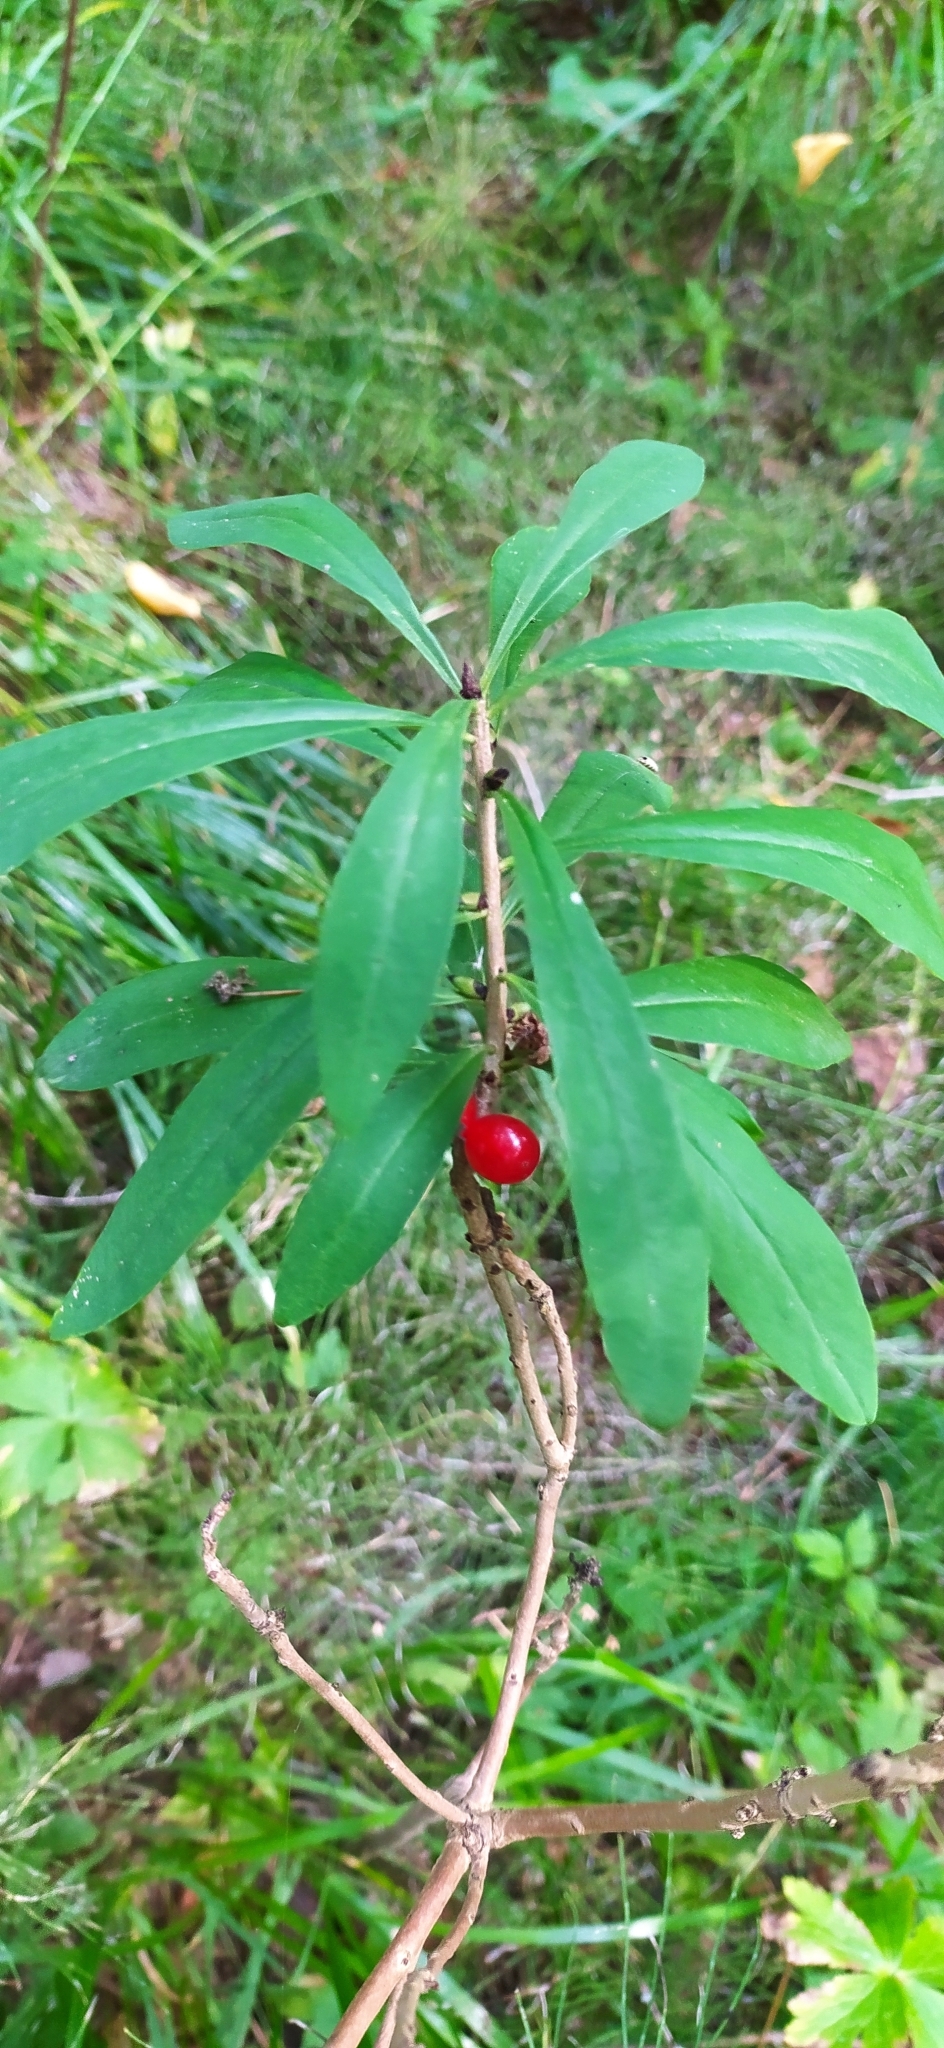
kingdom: Plantae
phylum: Tracheophyta
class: Magnoliopsida
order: Malvales
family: Thymelaeaceae
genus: Daphne
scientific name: Daphne mezereum
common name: Mezereon
